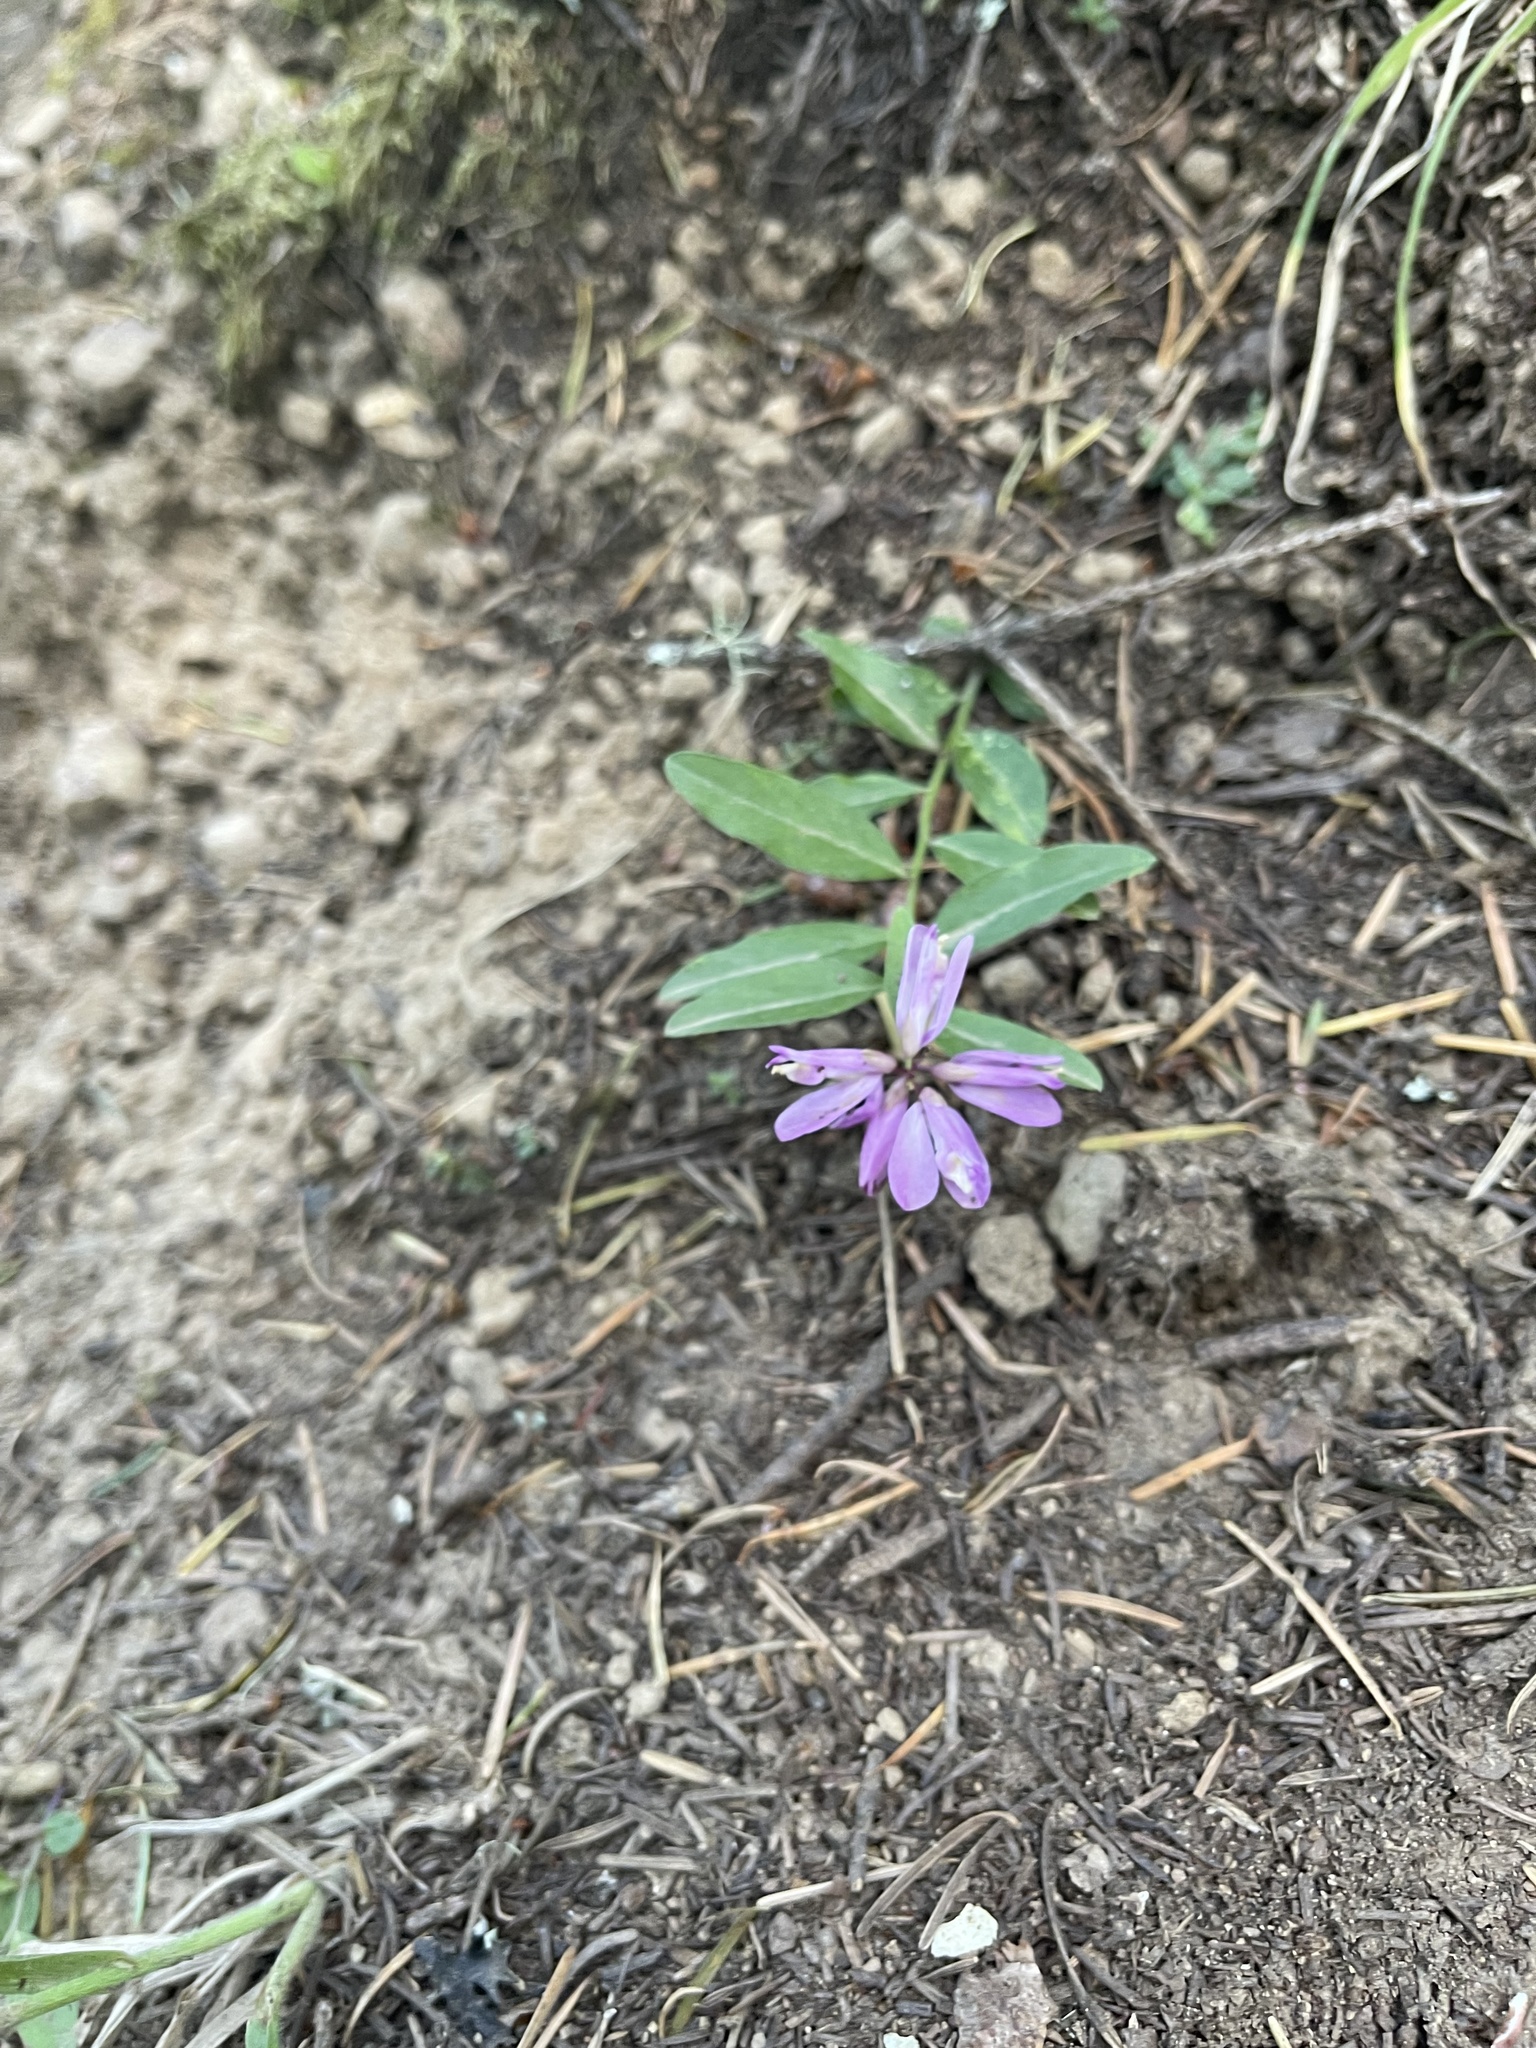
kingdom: Plantae
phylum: Tracheophyta
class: Magnoliopsida
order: Fabales
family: Polygalaceae
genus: Rhinotropis
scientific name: Rhinotropis californica
